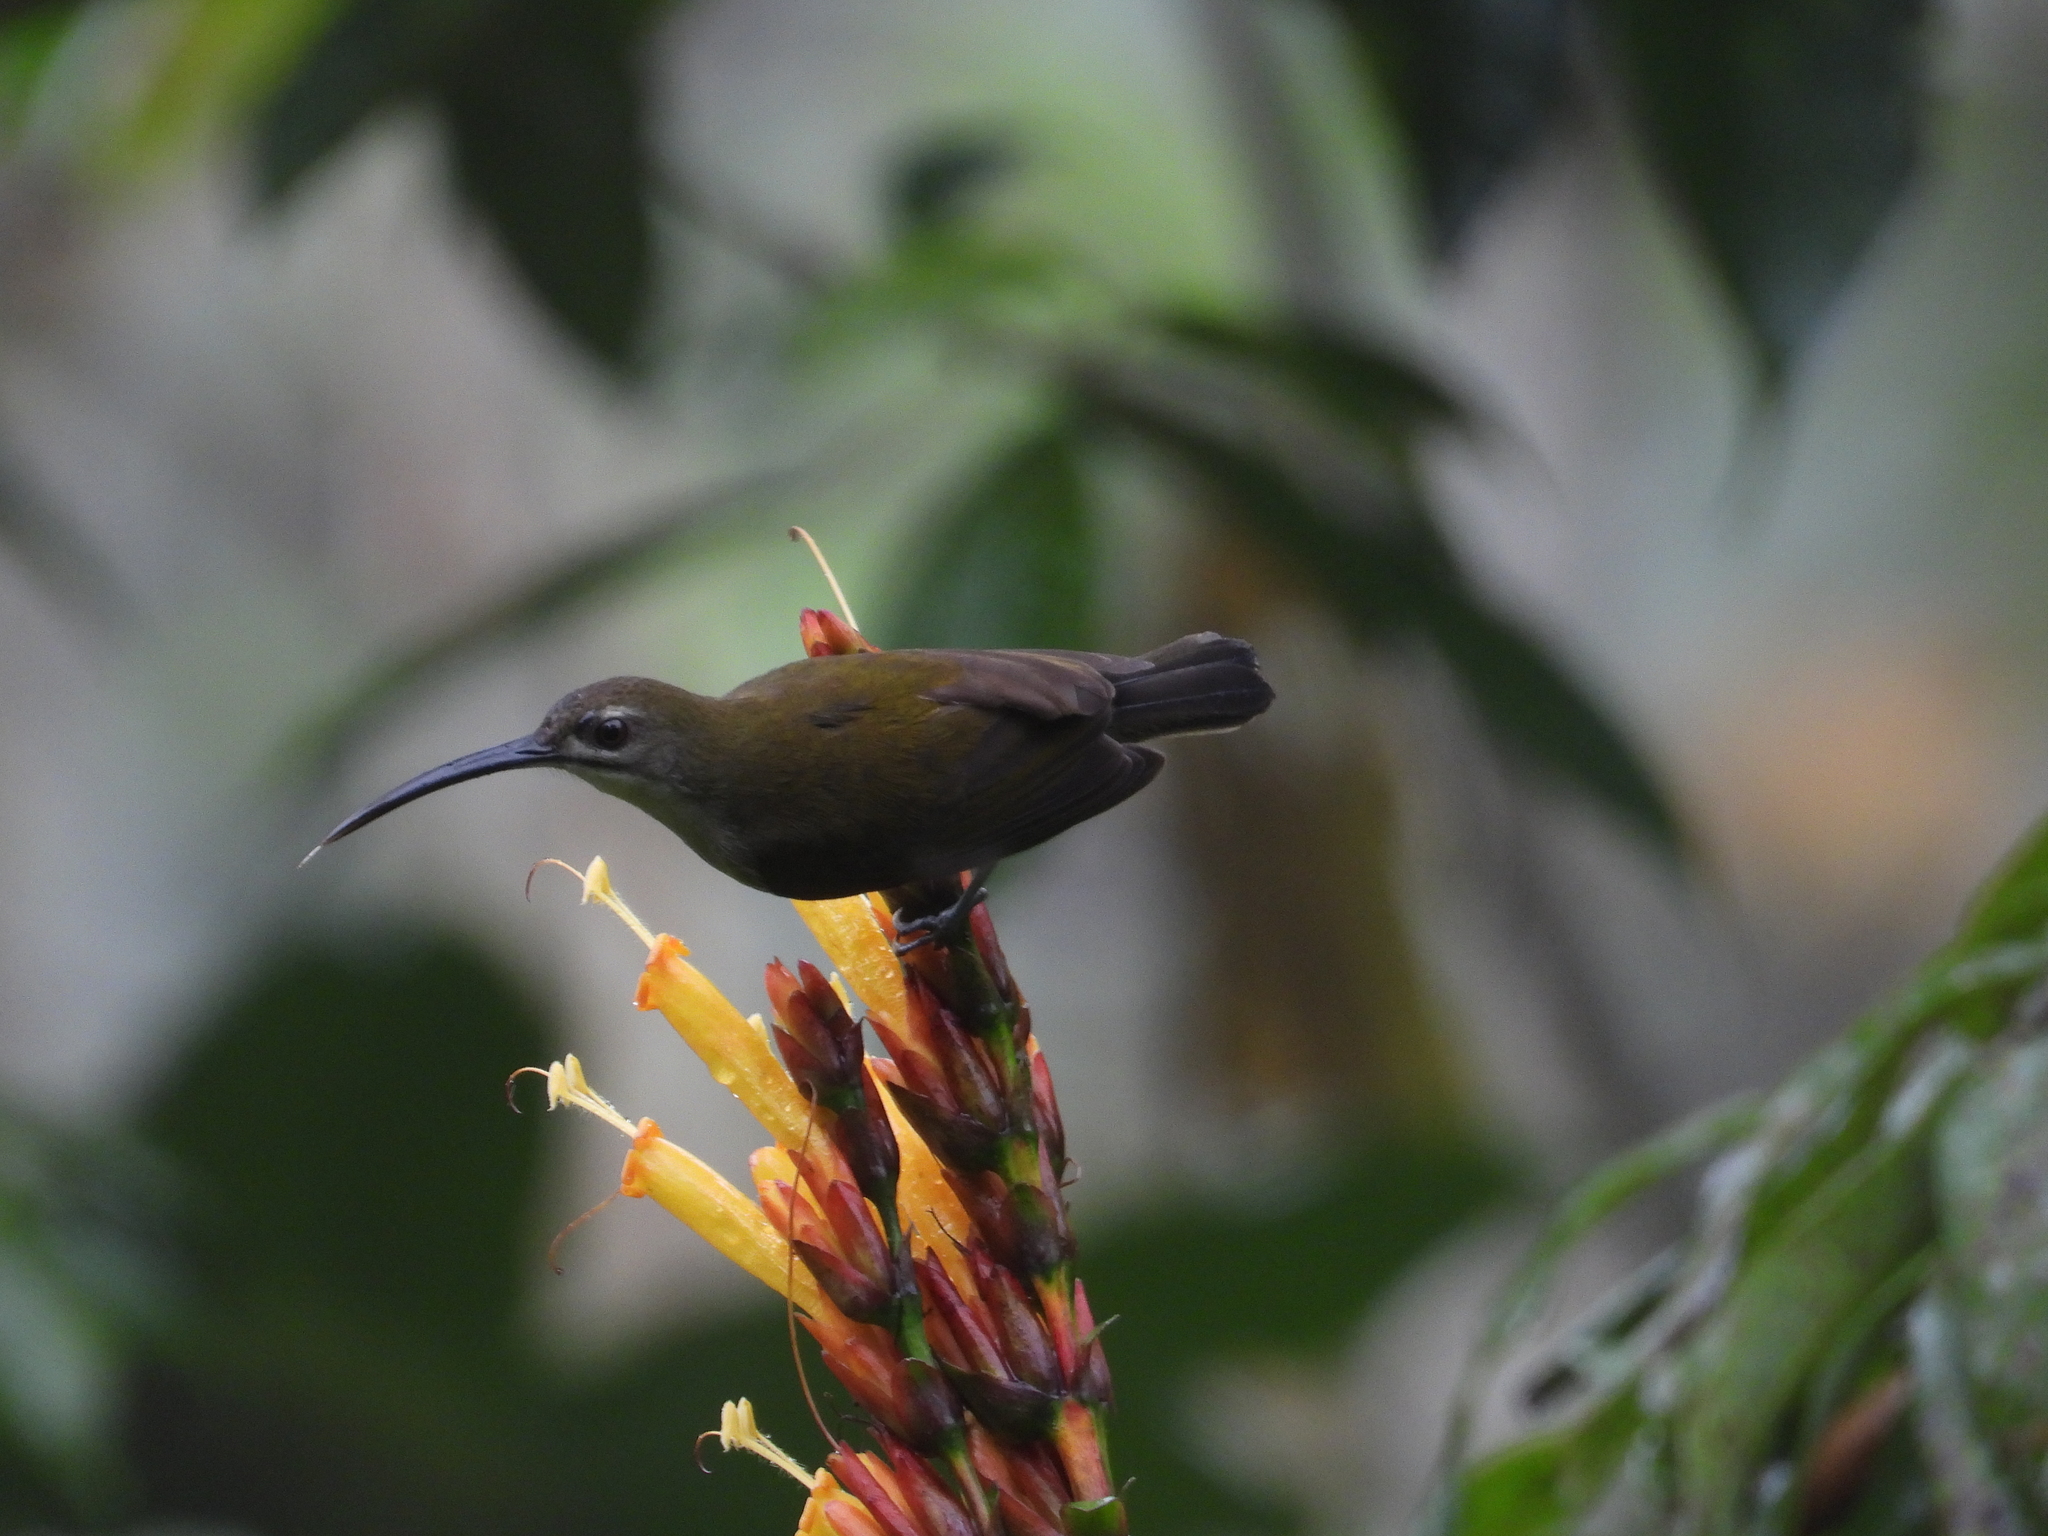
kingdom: Animalia
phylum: Chordata
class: Aves
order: Passeriformes
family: Nectariniidae
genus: Arachnothera
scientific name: Arachnothera longirostra
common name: Little spiderhunter
